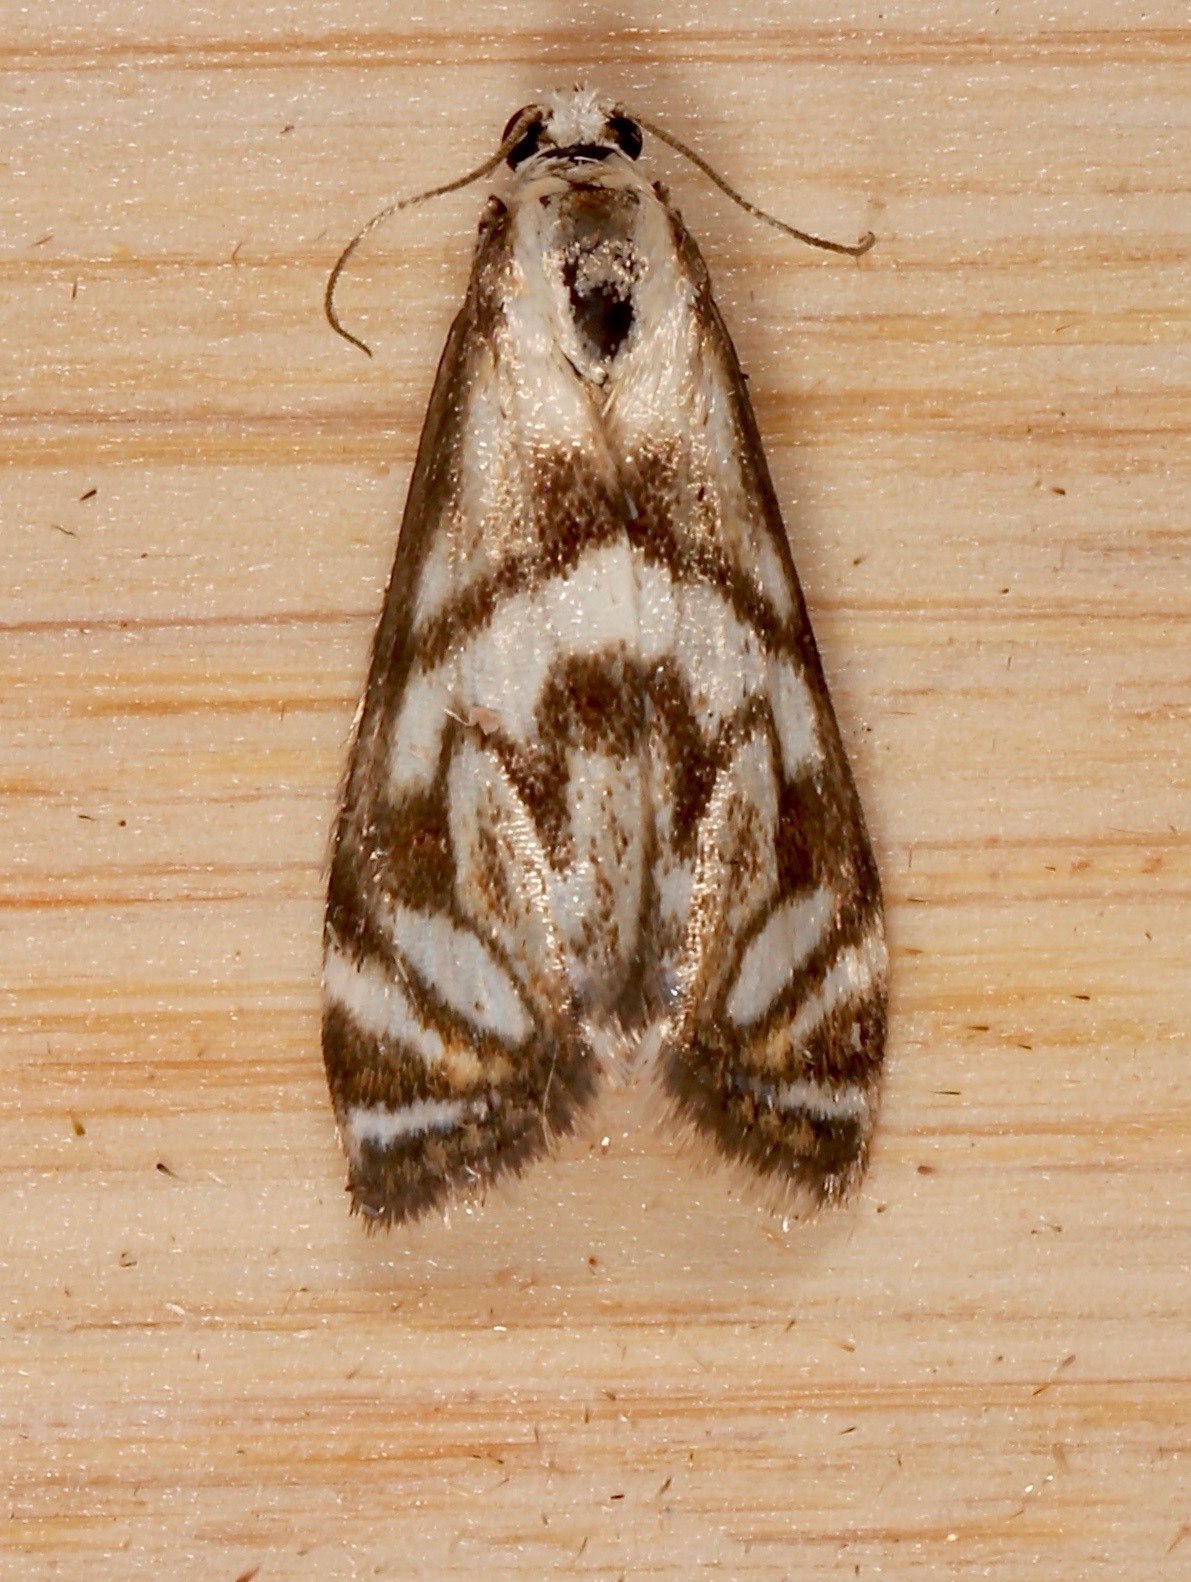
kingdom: Animalia
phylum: Arthropoda
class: Insecta
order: Lepidoptera
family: Crambidae
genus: Neocataclysta
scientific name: Neocataclysta magnificalis
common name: Scrollwork pyralid moth
